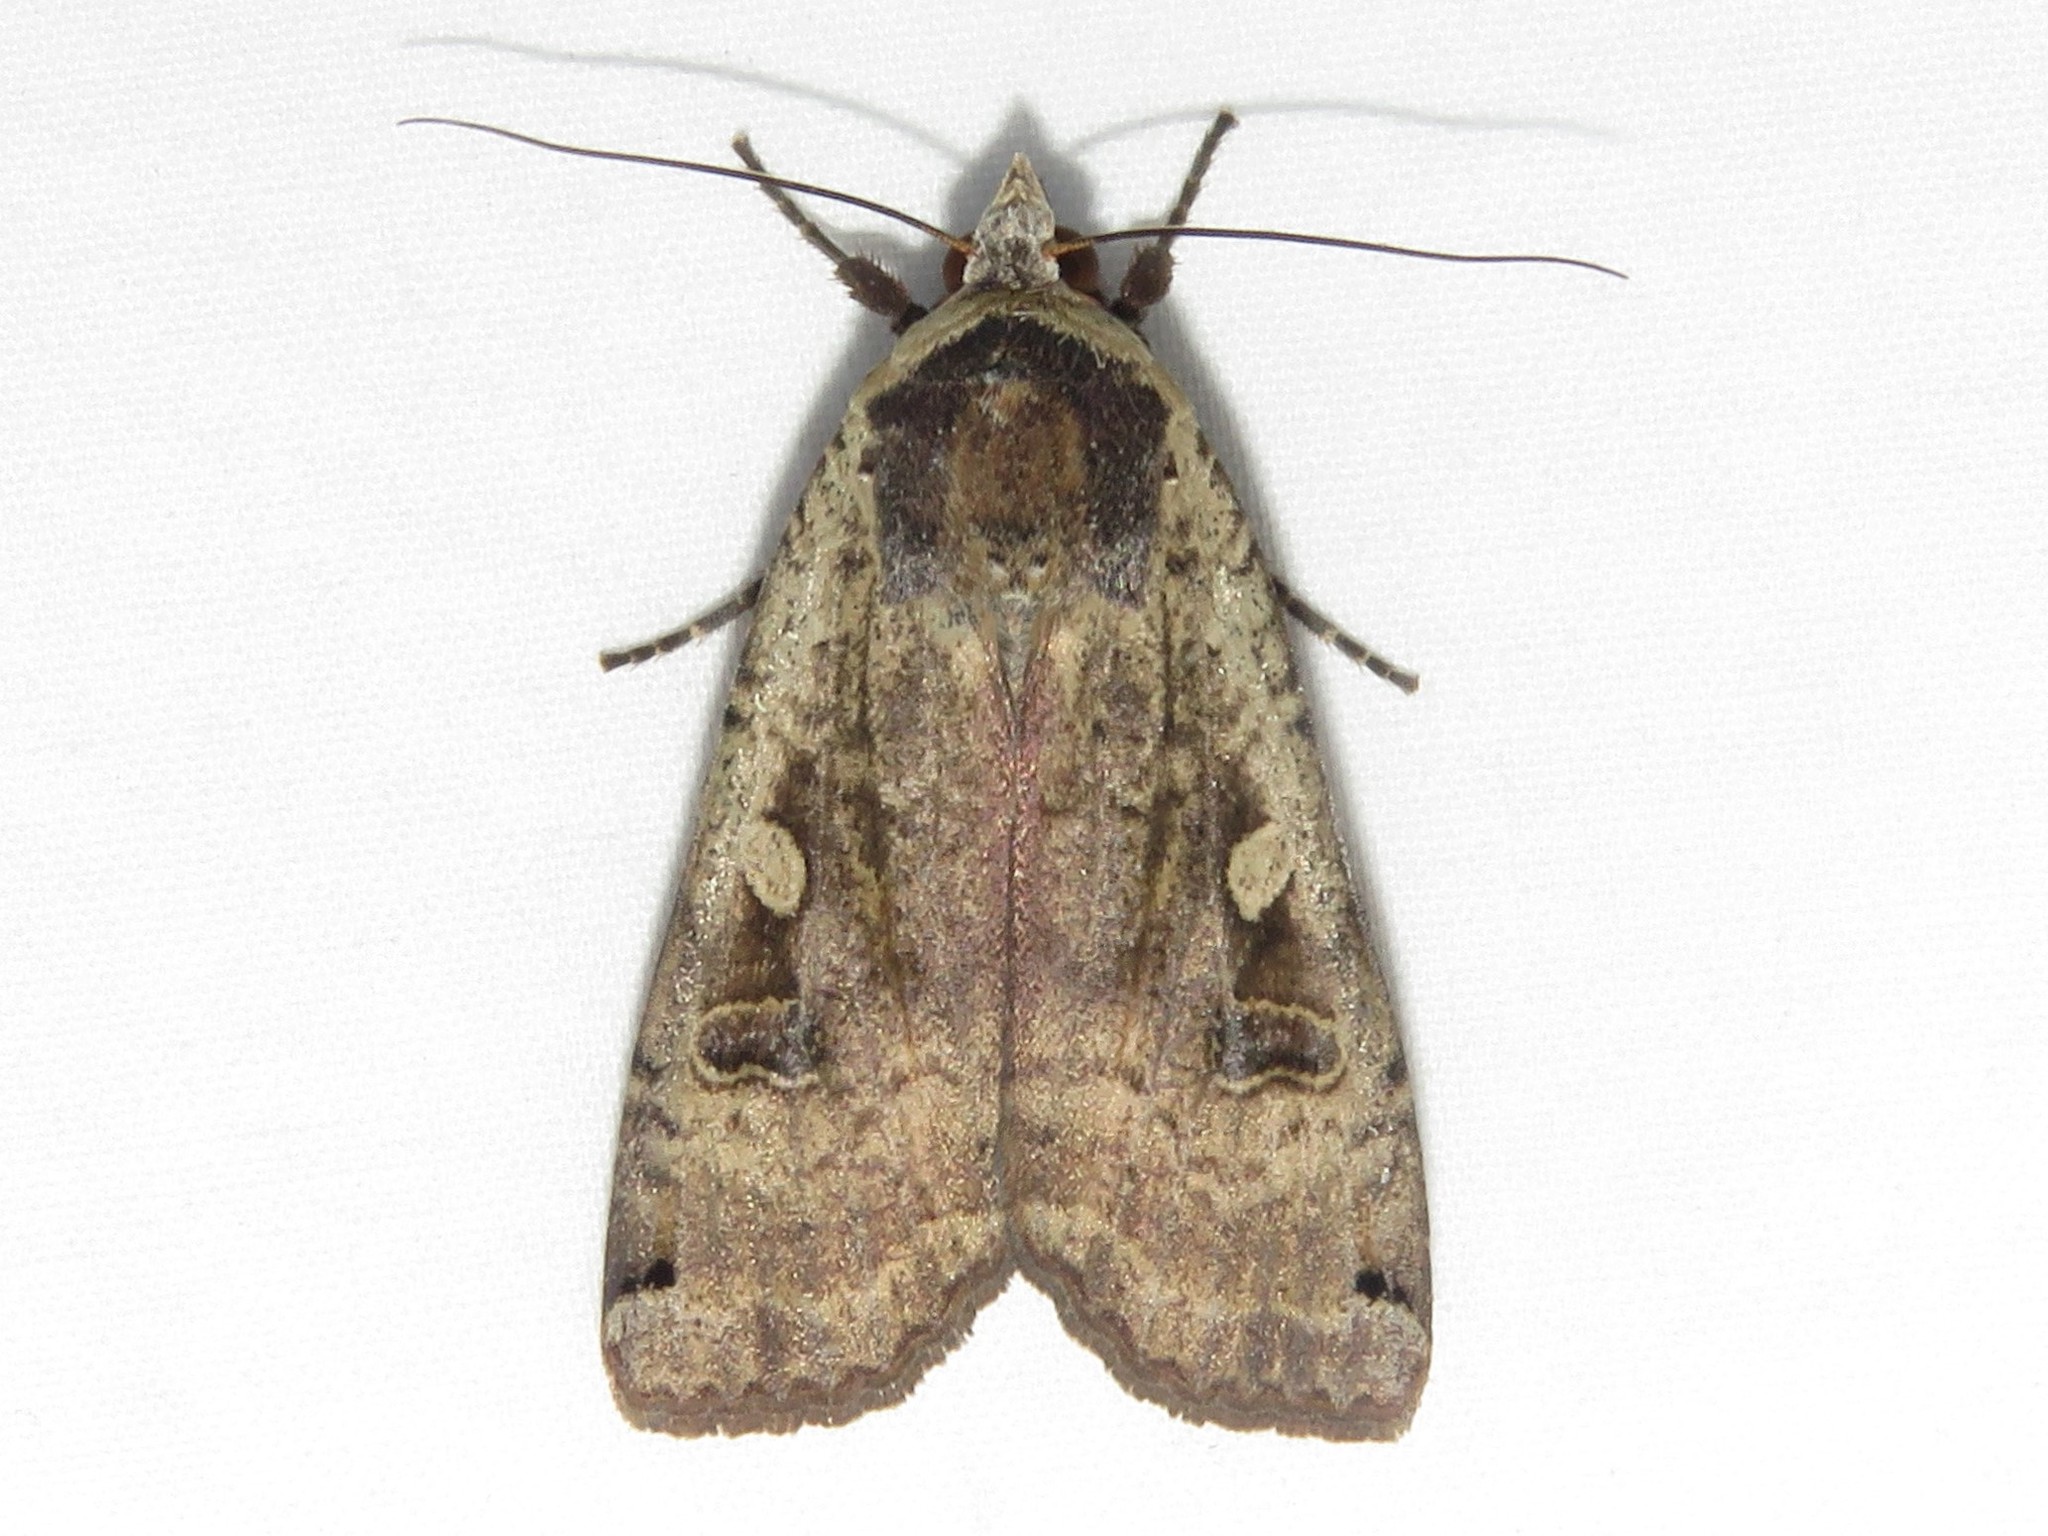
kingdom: Animalia
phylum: Arthropoda
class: Insecta
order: Lepidoptera
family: Noctuidae
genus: Noctua
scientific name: Noctua pronuba
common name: Large yellow underwing
